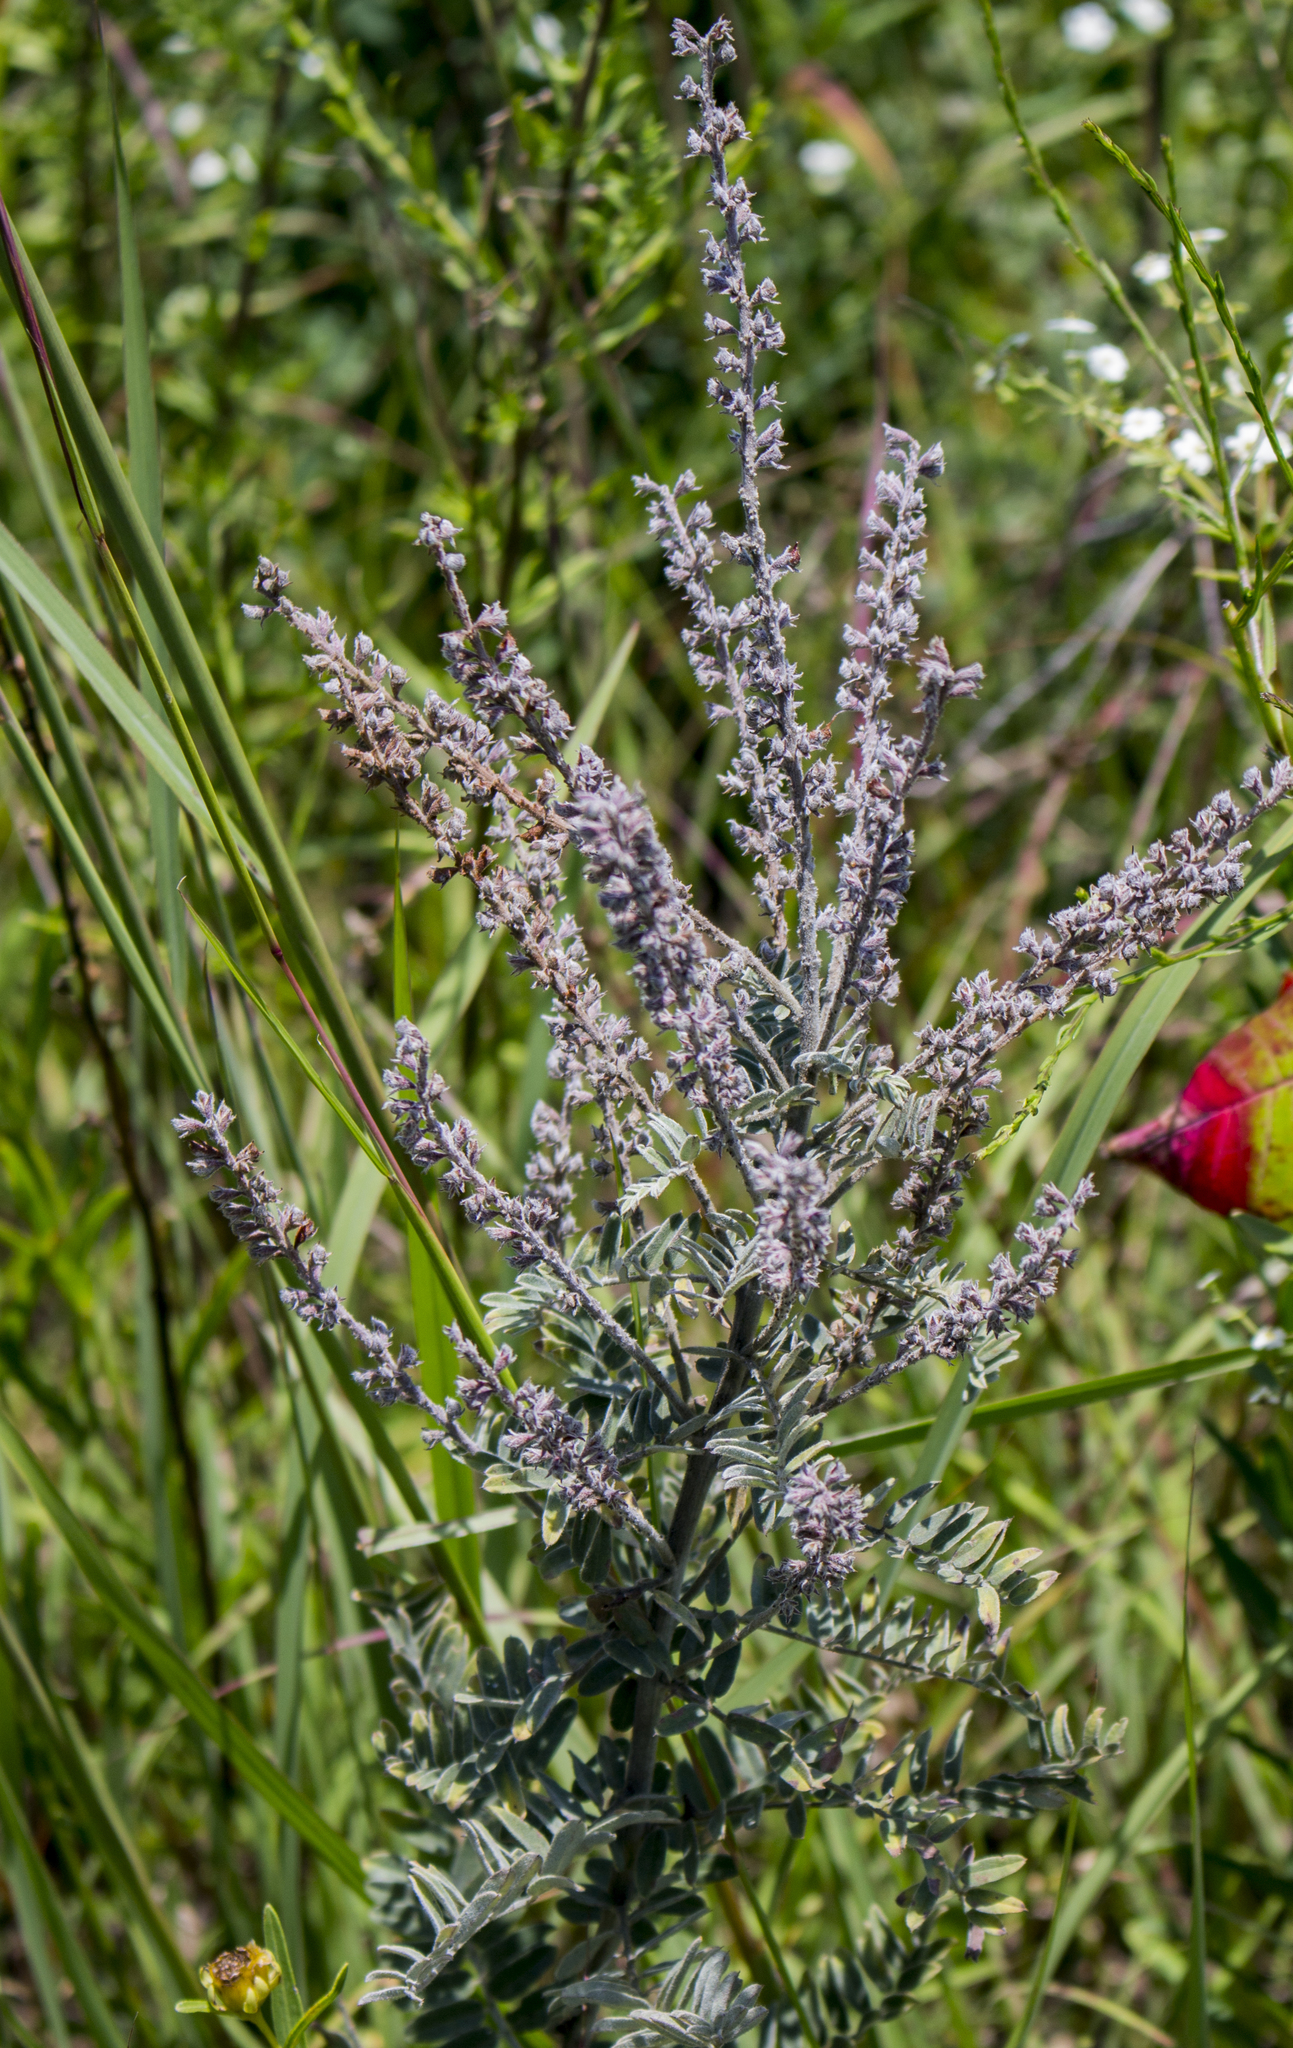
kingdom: Plantae
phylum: Tracheophyta
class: Magnoliopsida
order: Fabales
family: Fabaceae
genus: Amorpha
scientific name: Amorpha canescens
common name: Leadplant
